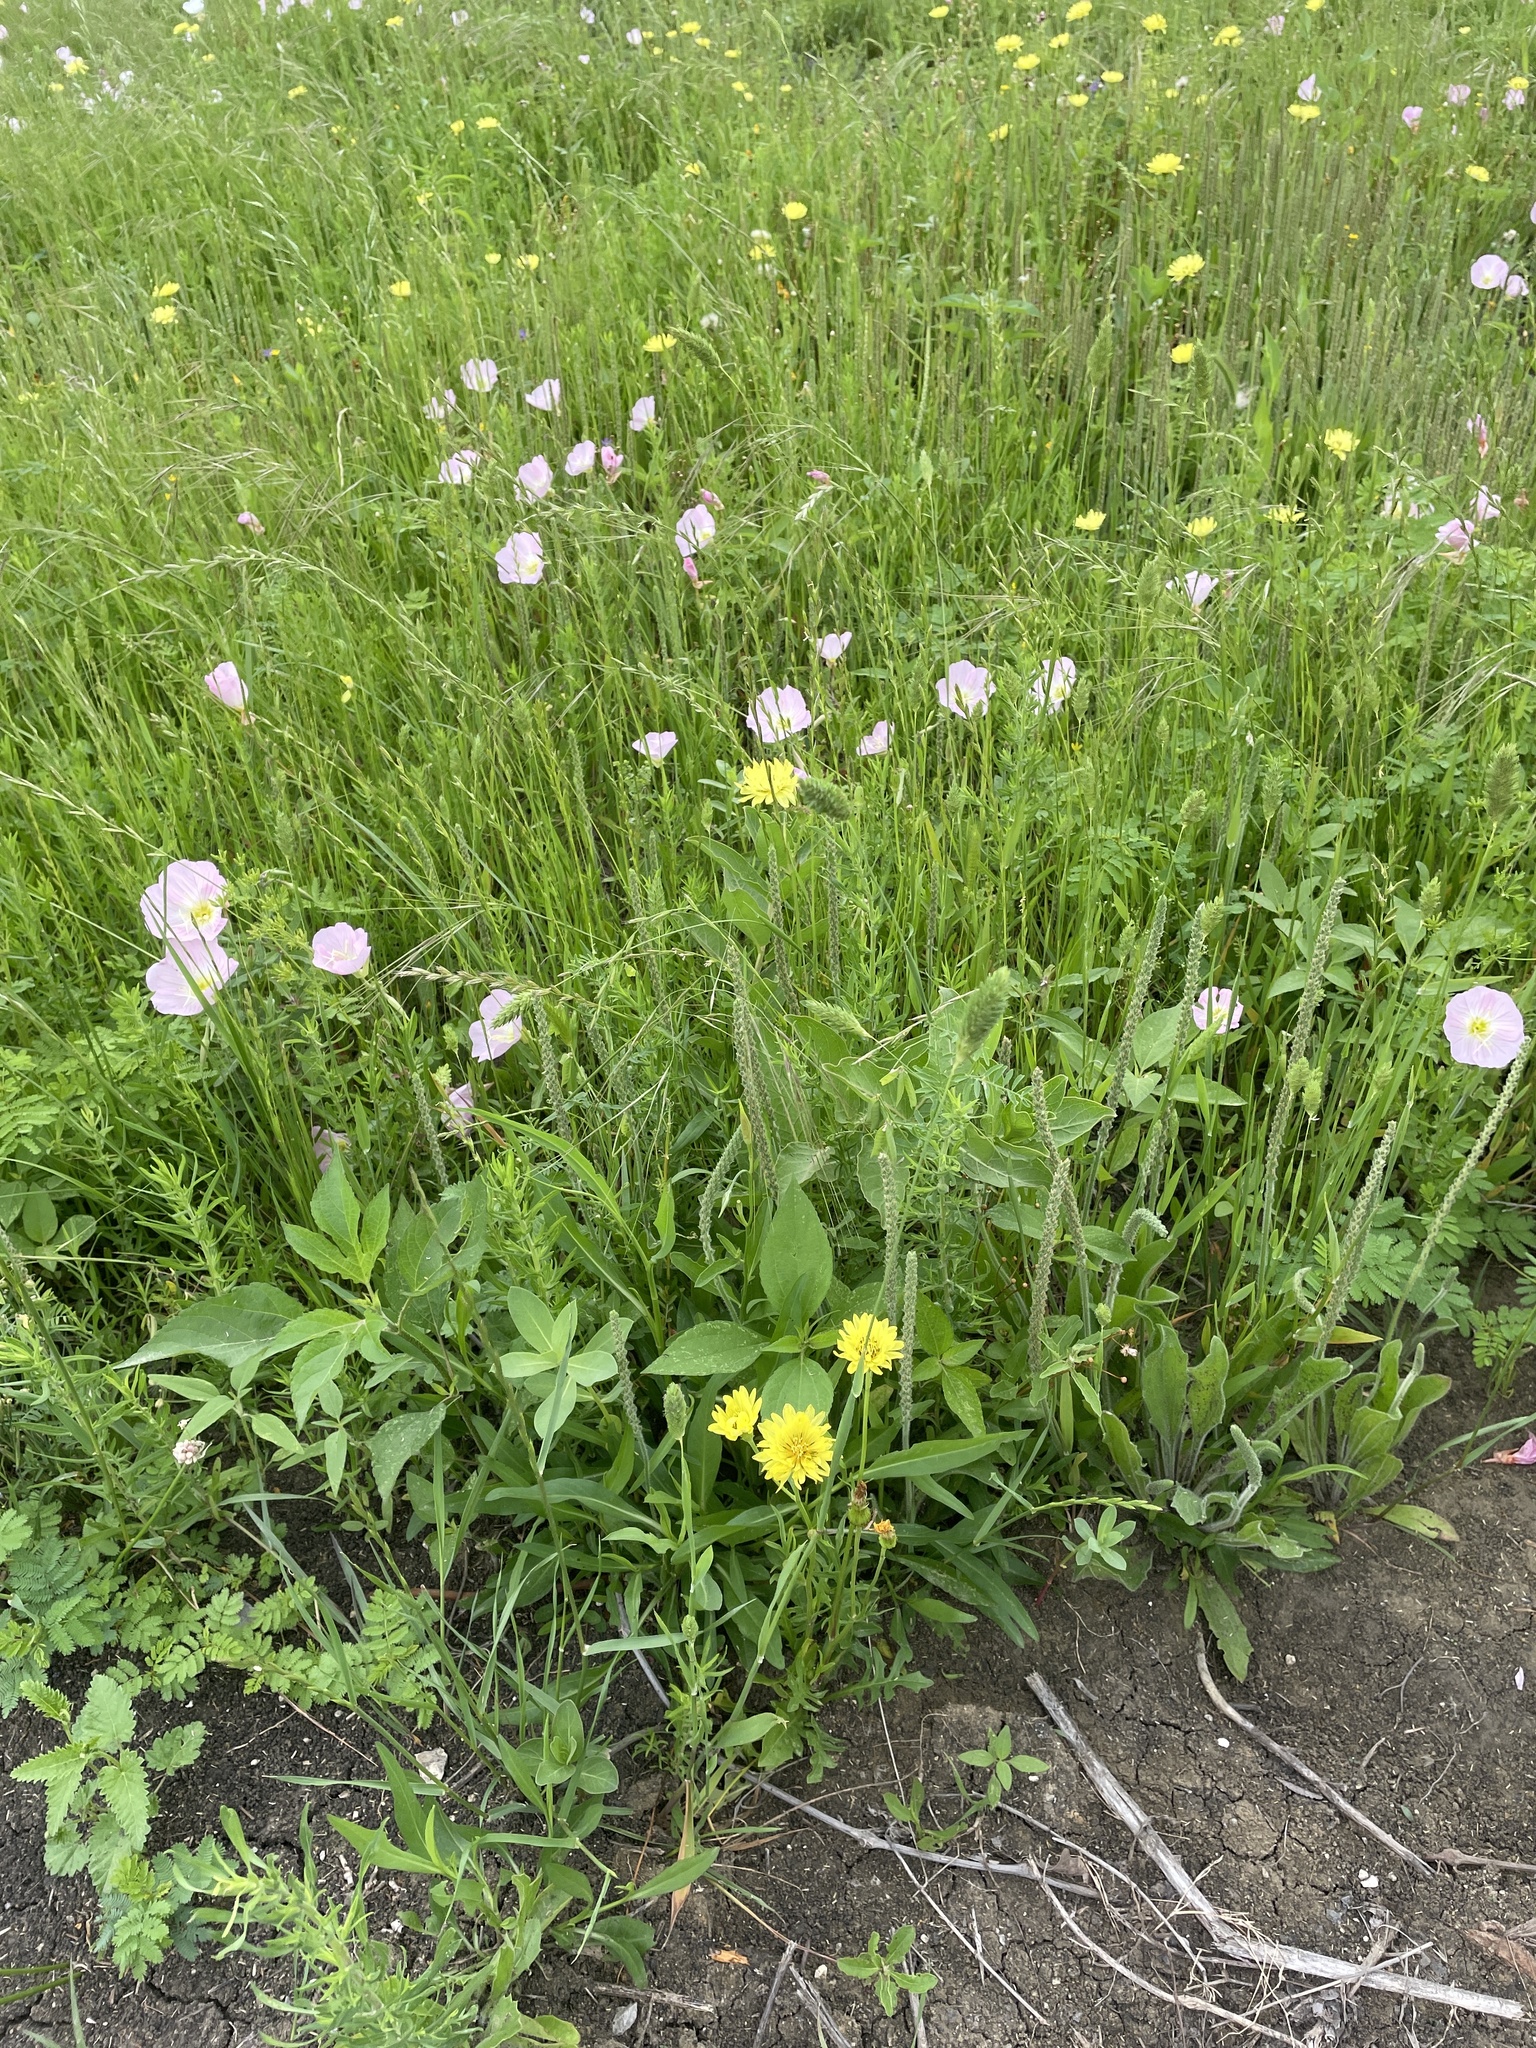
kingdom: Plantae
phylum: Tracheophyta
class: Liliopsida
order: Poales
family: Poaceae
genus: Phalaris
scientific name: Phalaris caroliniana
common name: May grass
